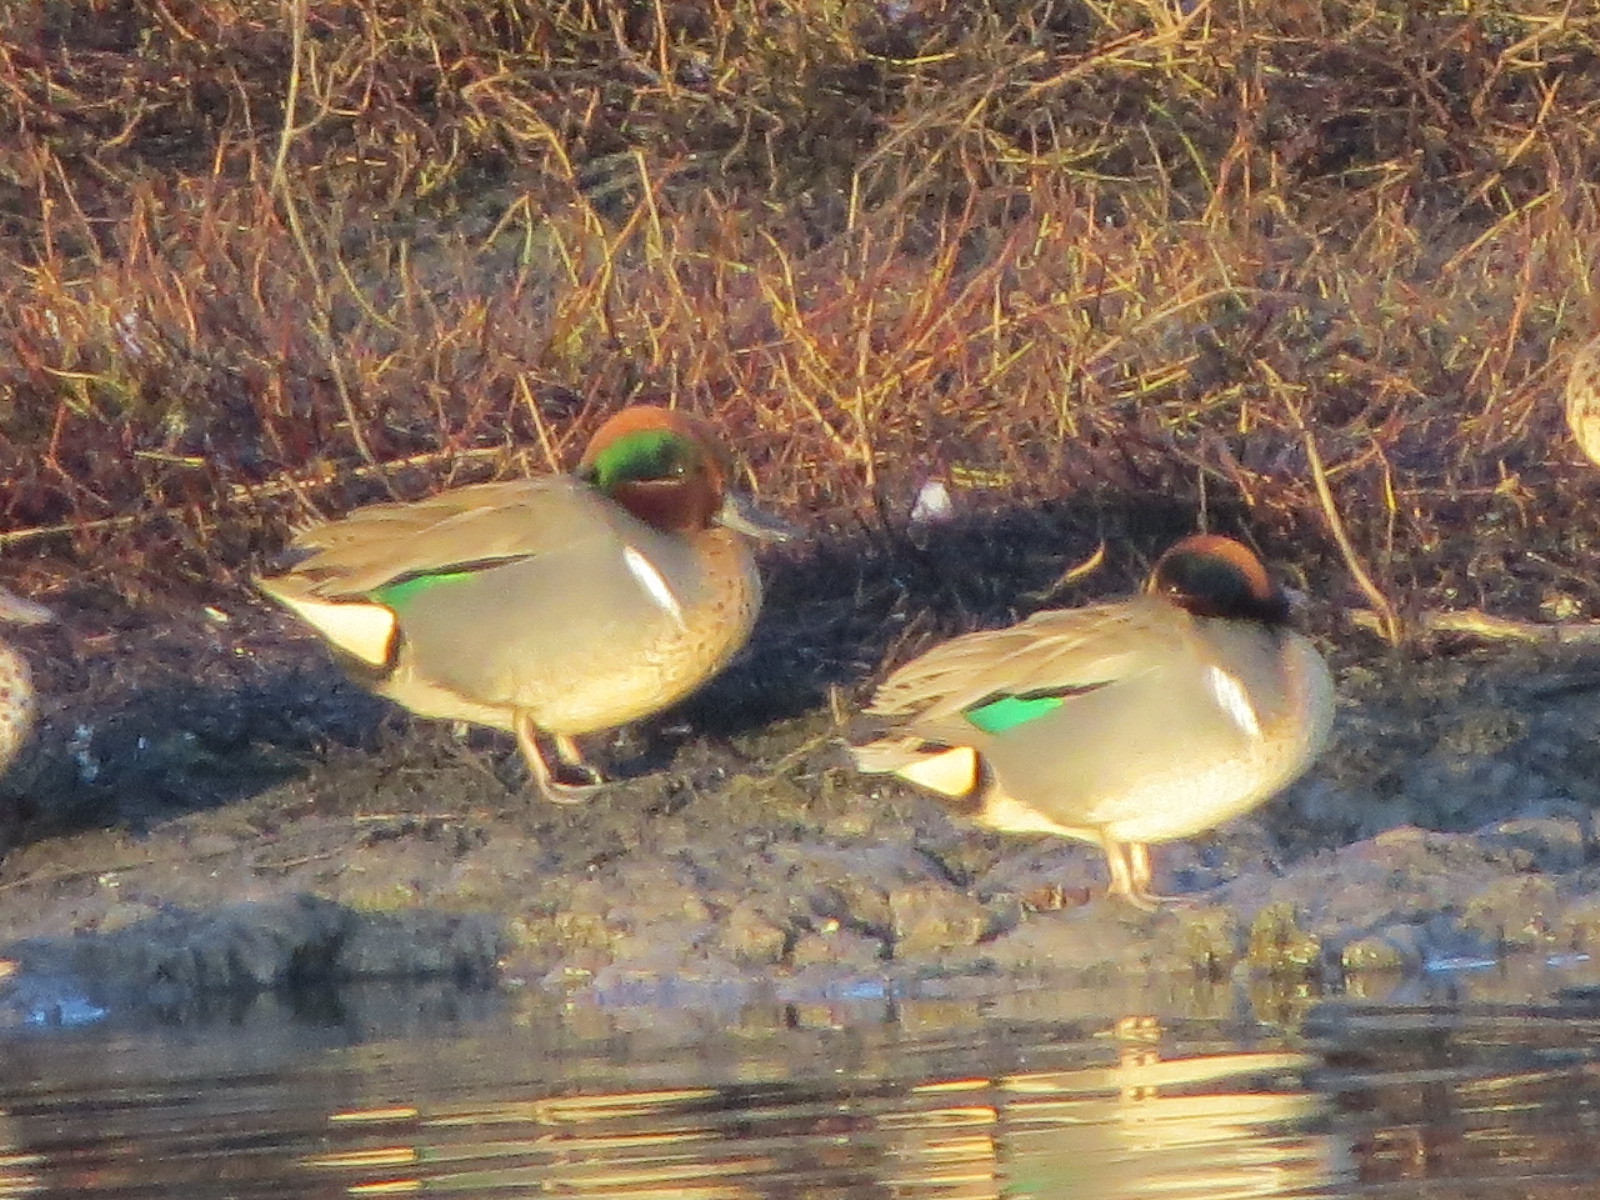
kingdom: Animalia
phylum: Chordata
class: Aves
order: Anseriformes
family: Anatidae
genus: Anas
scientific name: Anas crecca
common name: Eurasian teal
